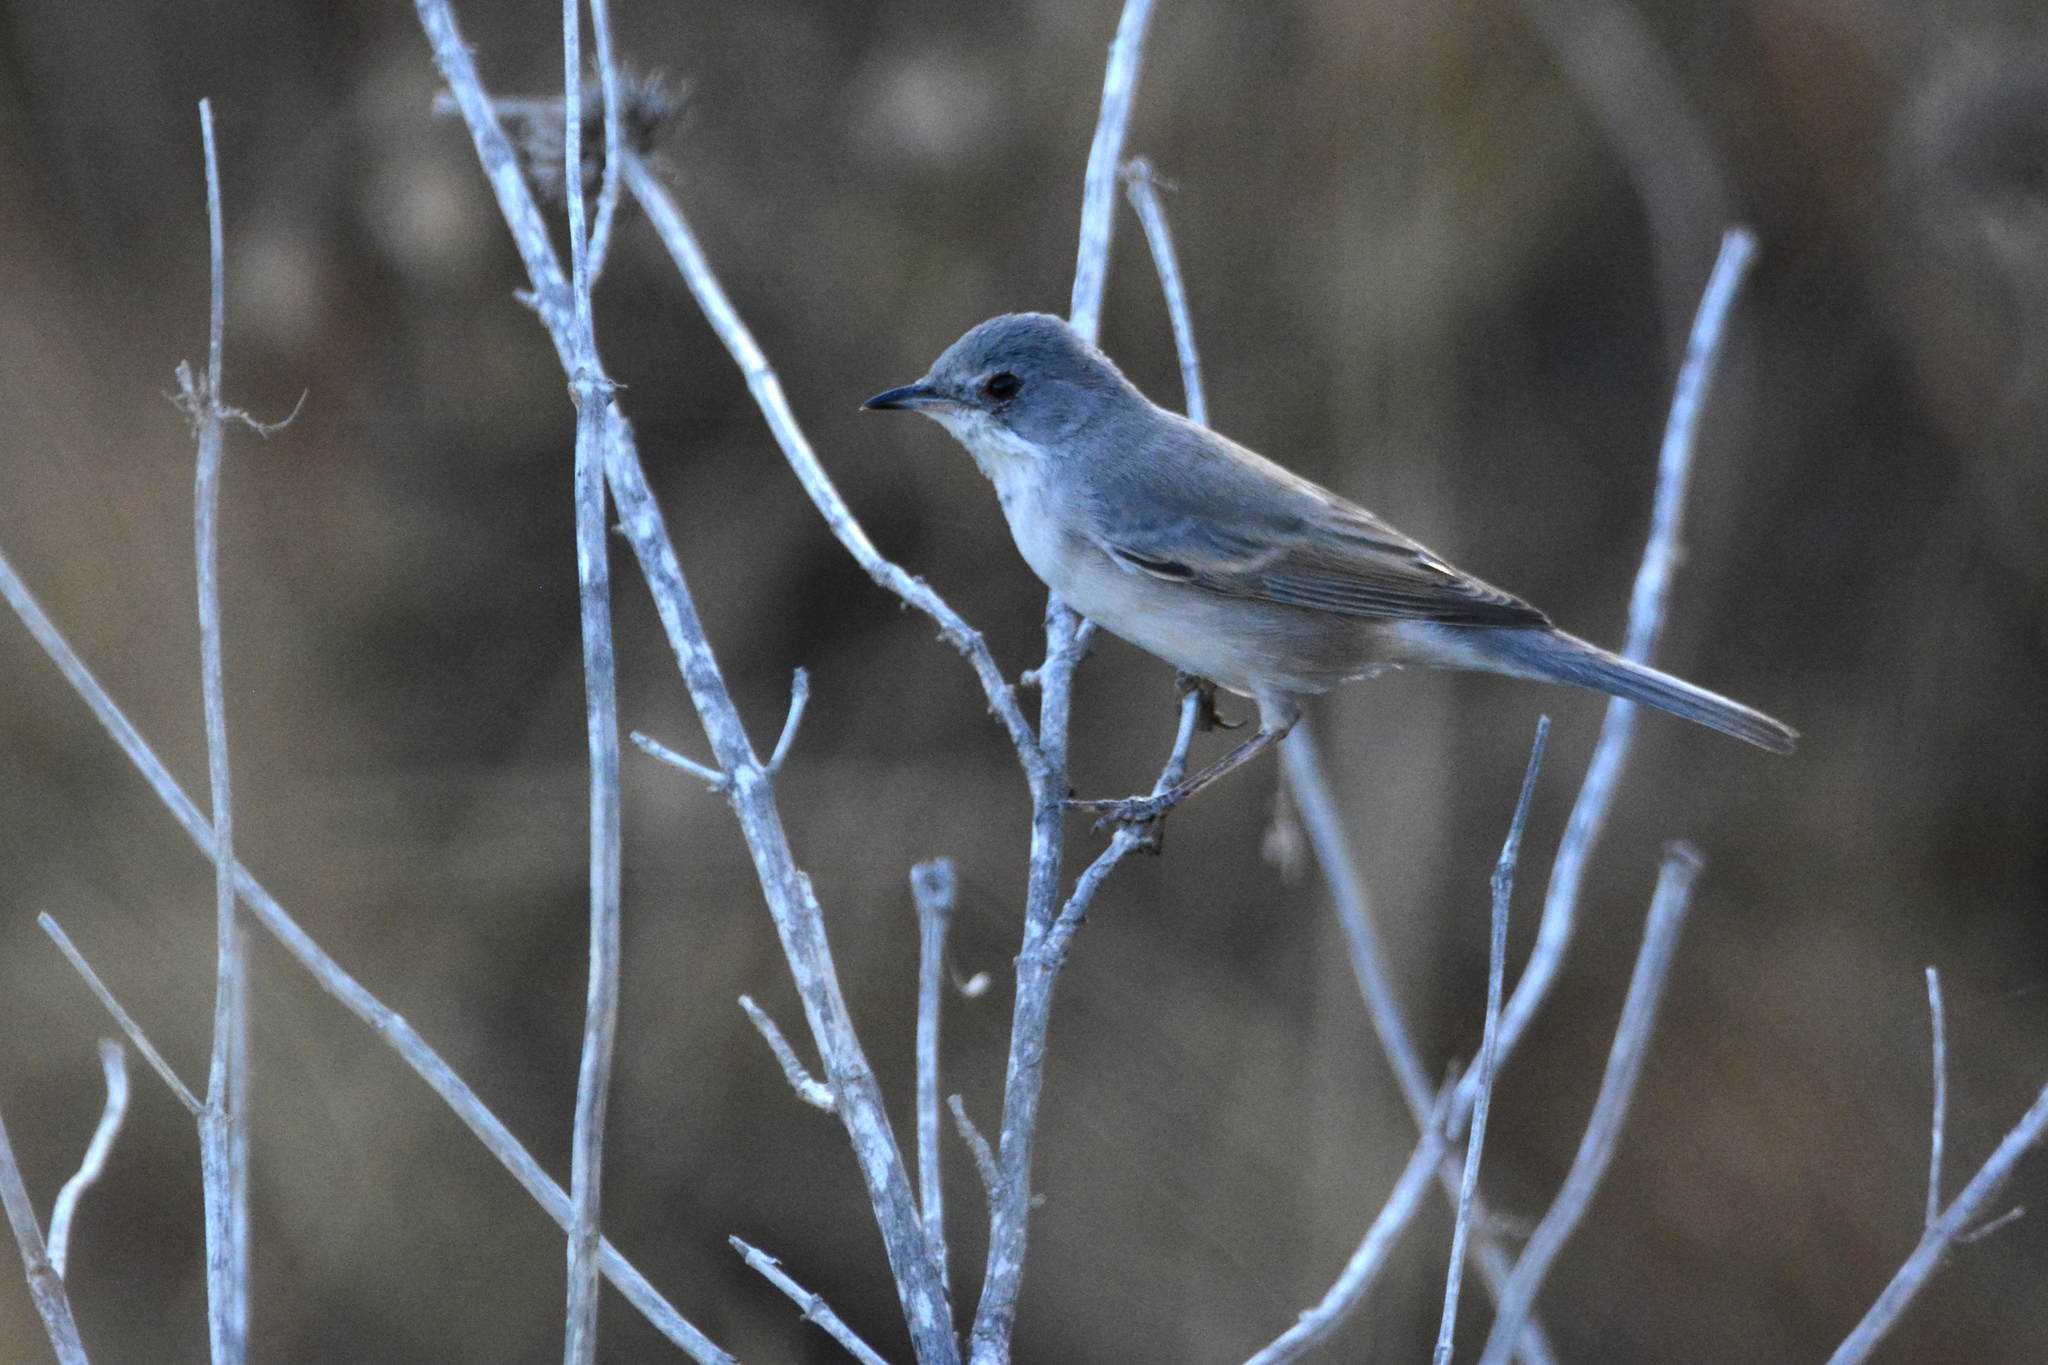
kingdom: Animalia
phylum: Chordata
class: Aves
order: Passeriformes
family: Sylviidae
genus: Sylvia
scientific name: Sylvia ruppeli
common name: Rüppell's warbler
